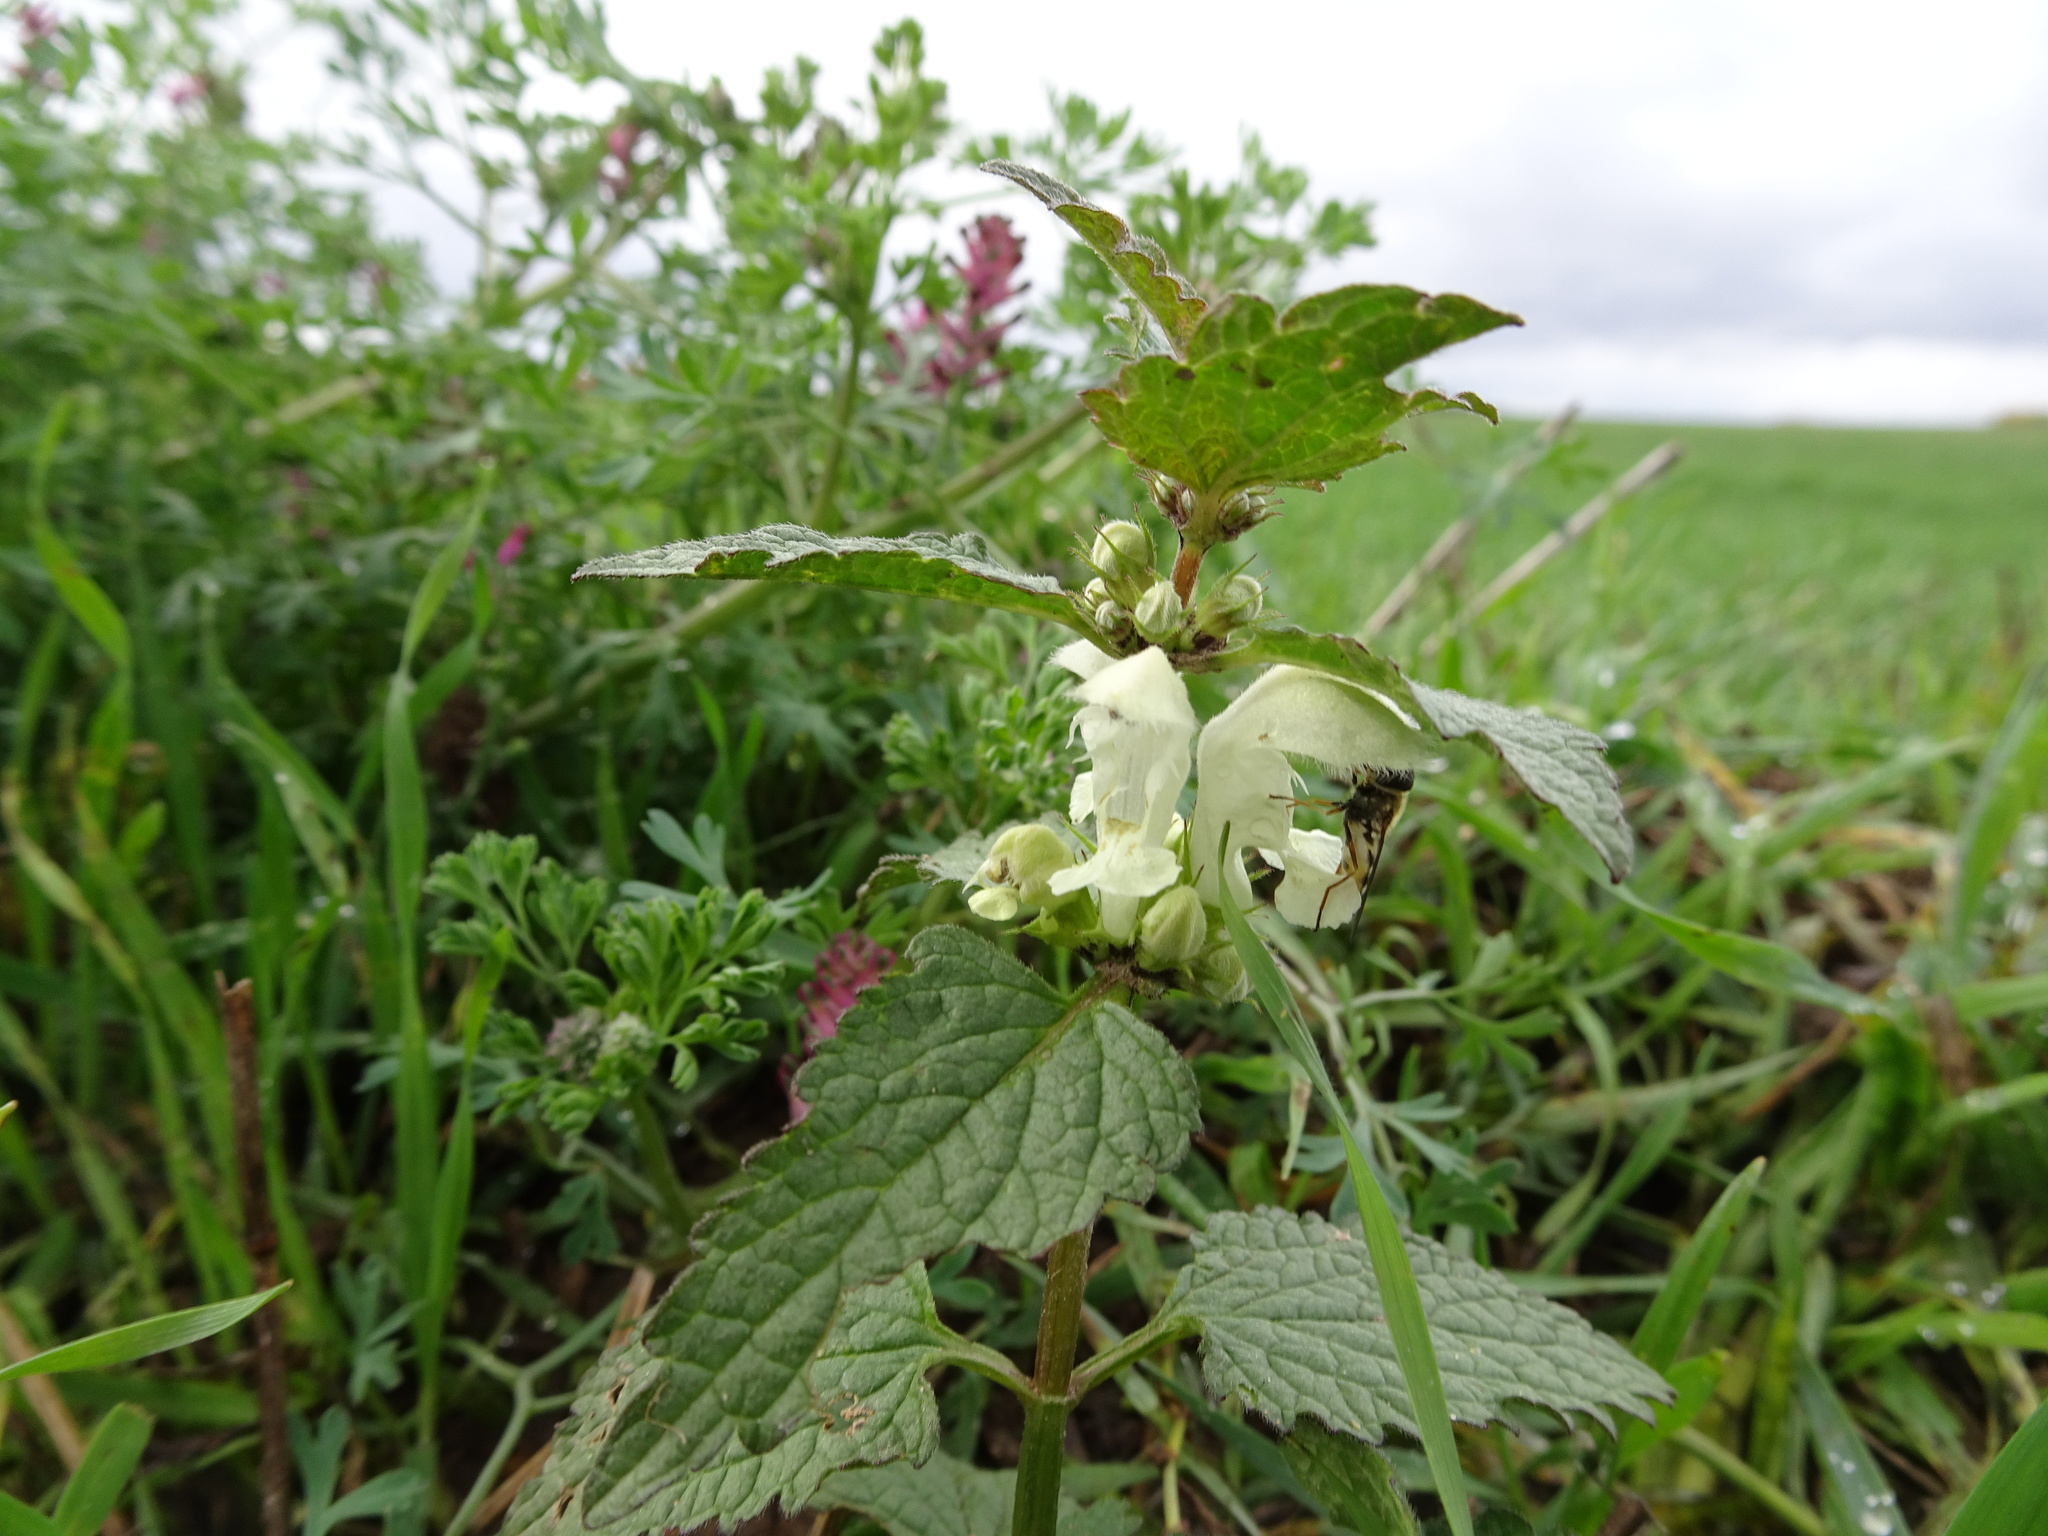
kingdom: Plantae
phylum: Tracheophyta
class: Magnoliopsida
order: Lamiales
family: Lamiaceae
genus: Lamium
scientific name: Lamium album
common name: White dead-nettle
